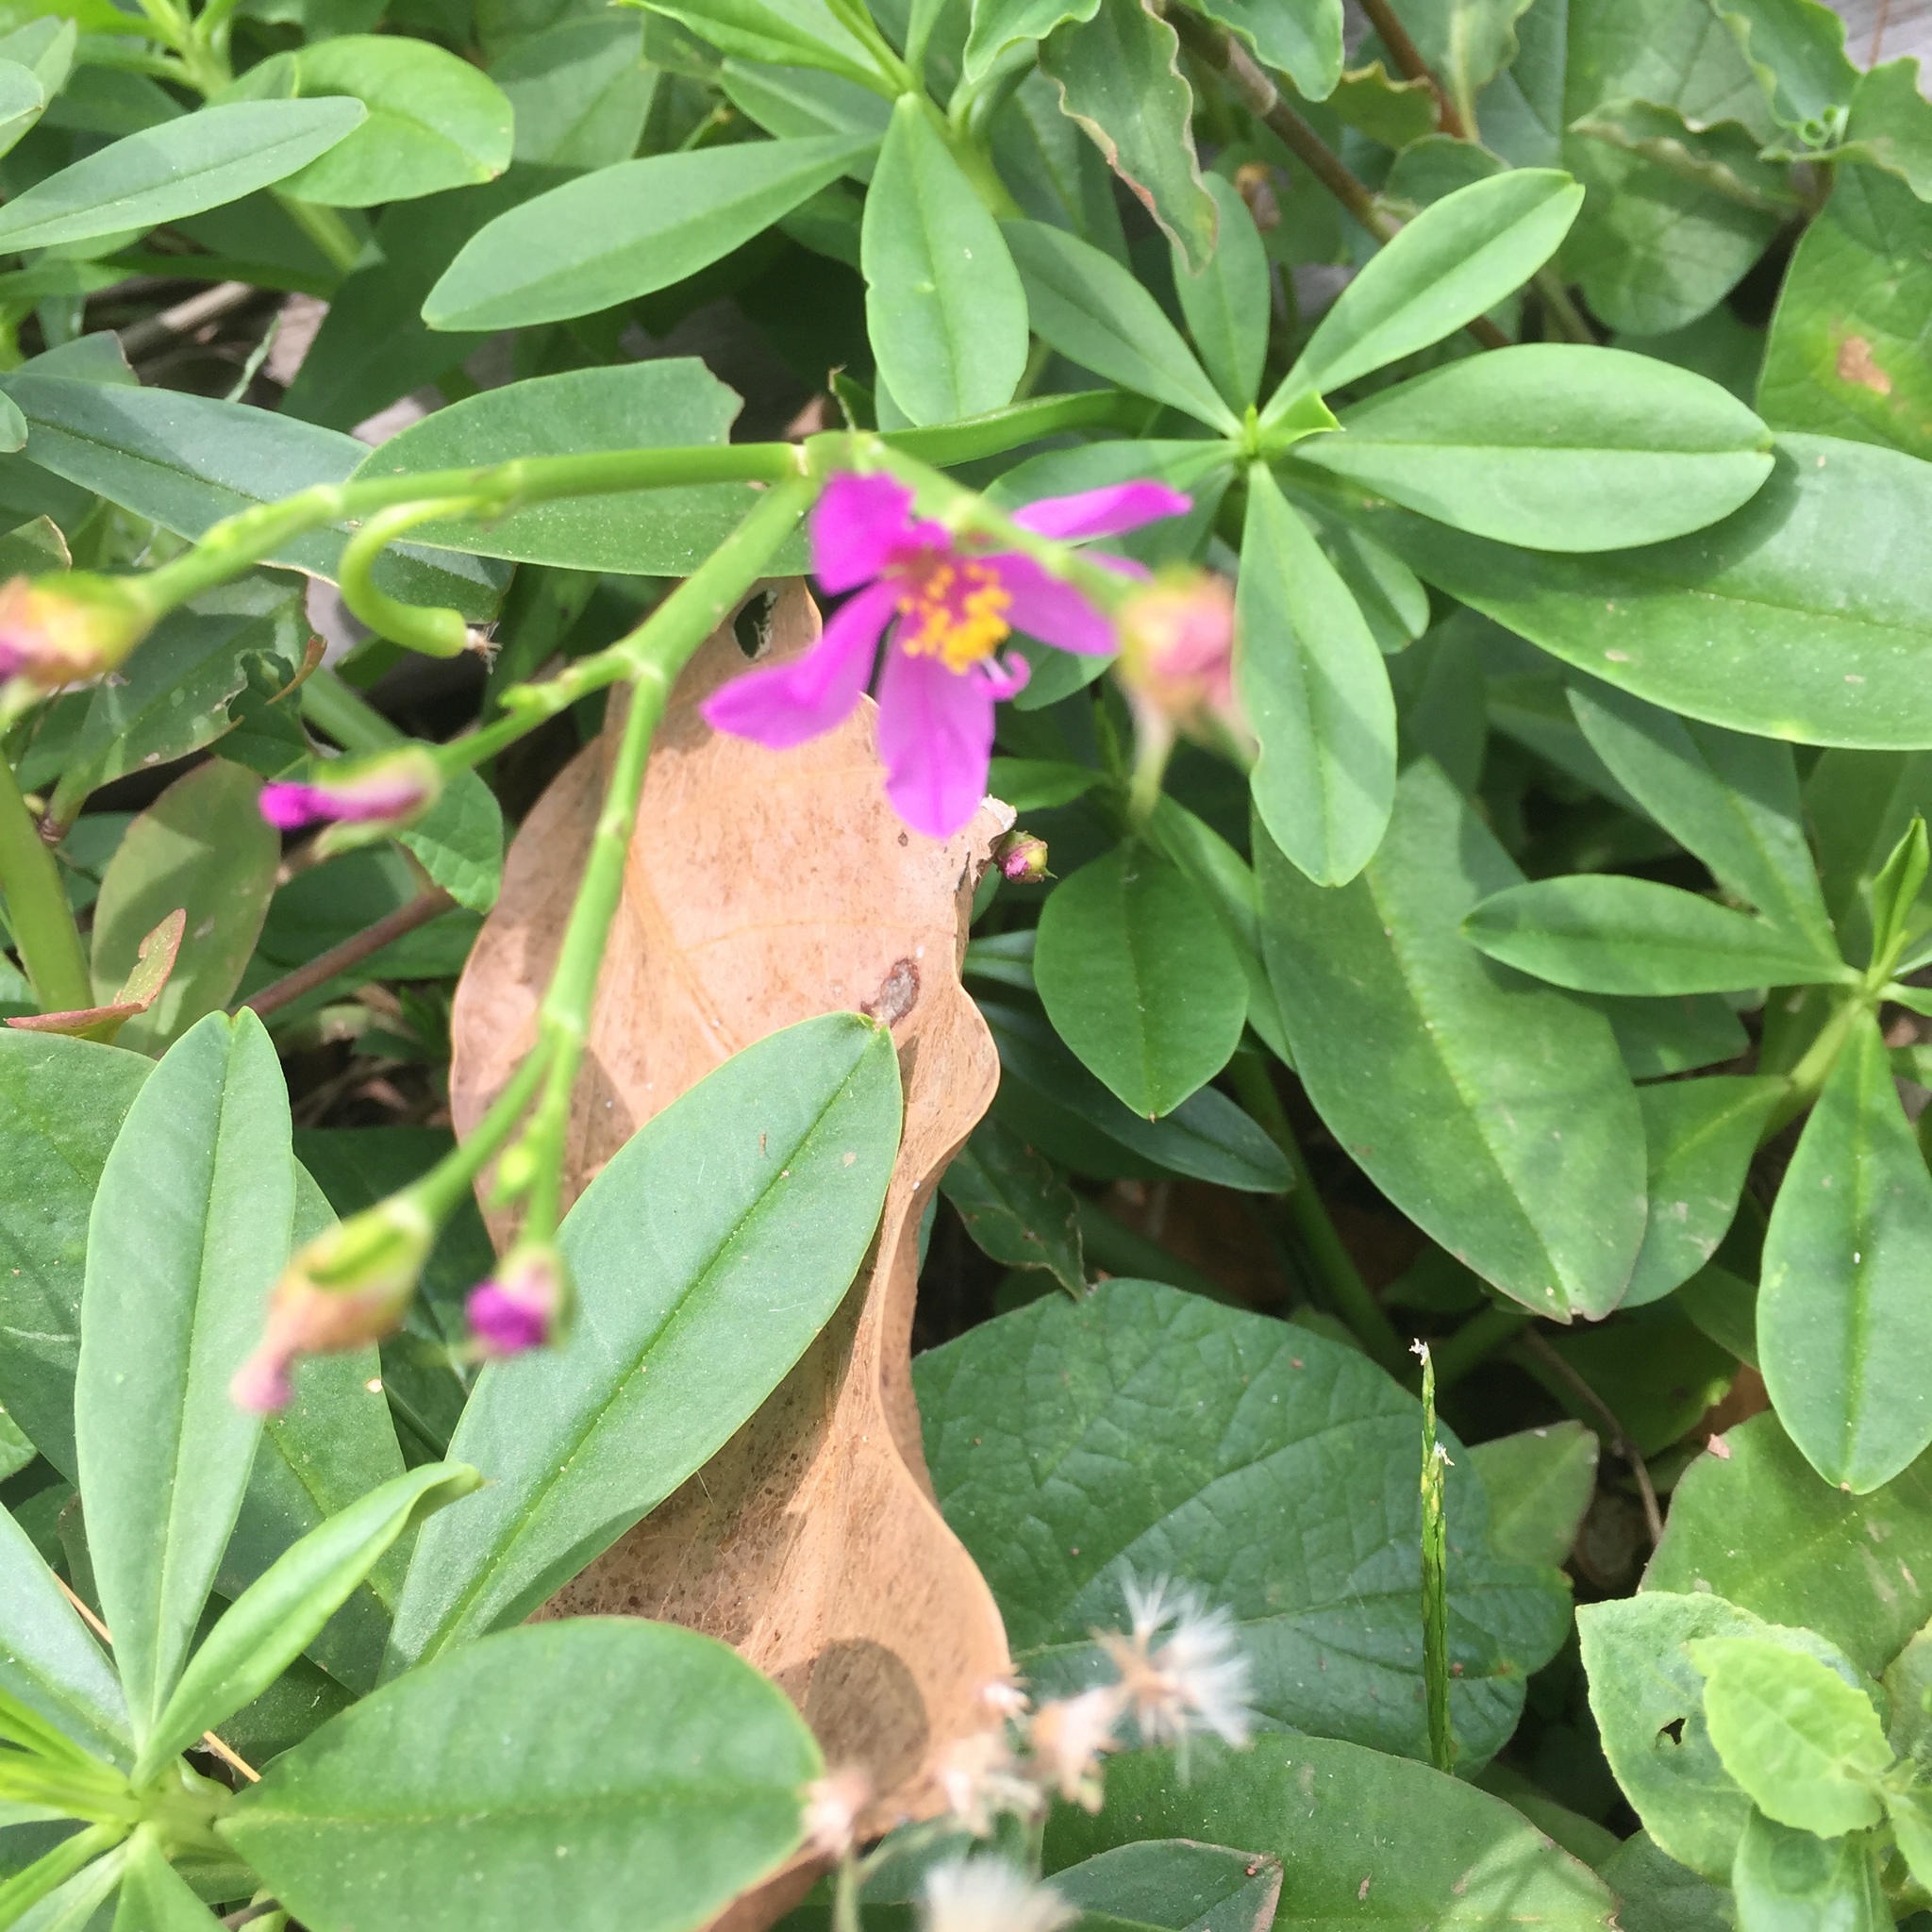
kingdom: Plantae
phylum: Tracheophyta
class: Magnoliopsida
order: Caryophyllales
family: Talinaceae
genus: Talinum
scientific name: Talinum fruticosum
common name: Verdolaga-francesa
